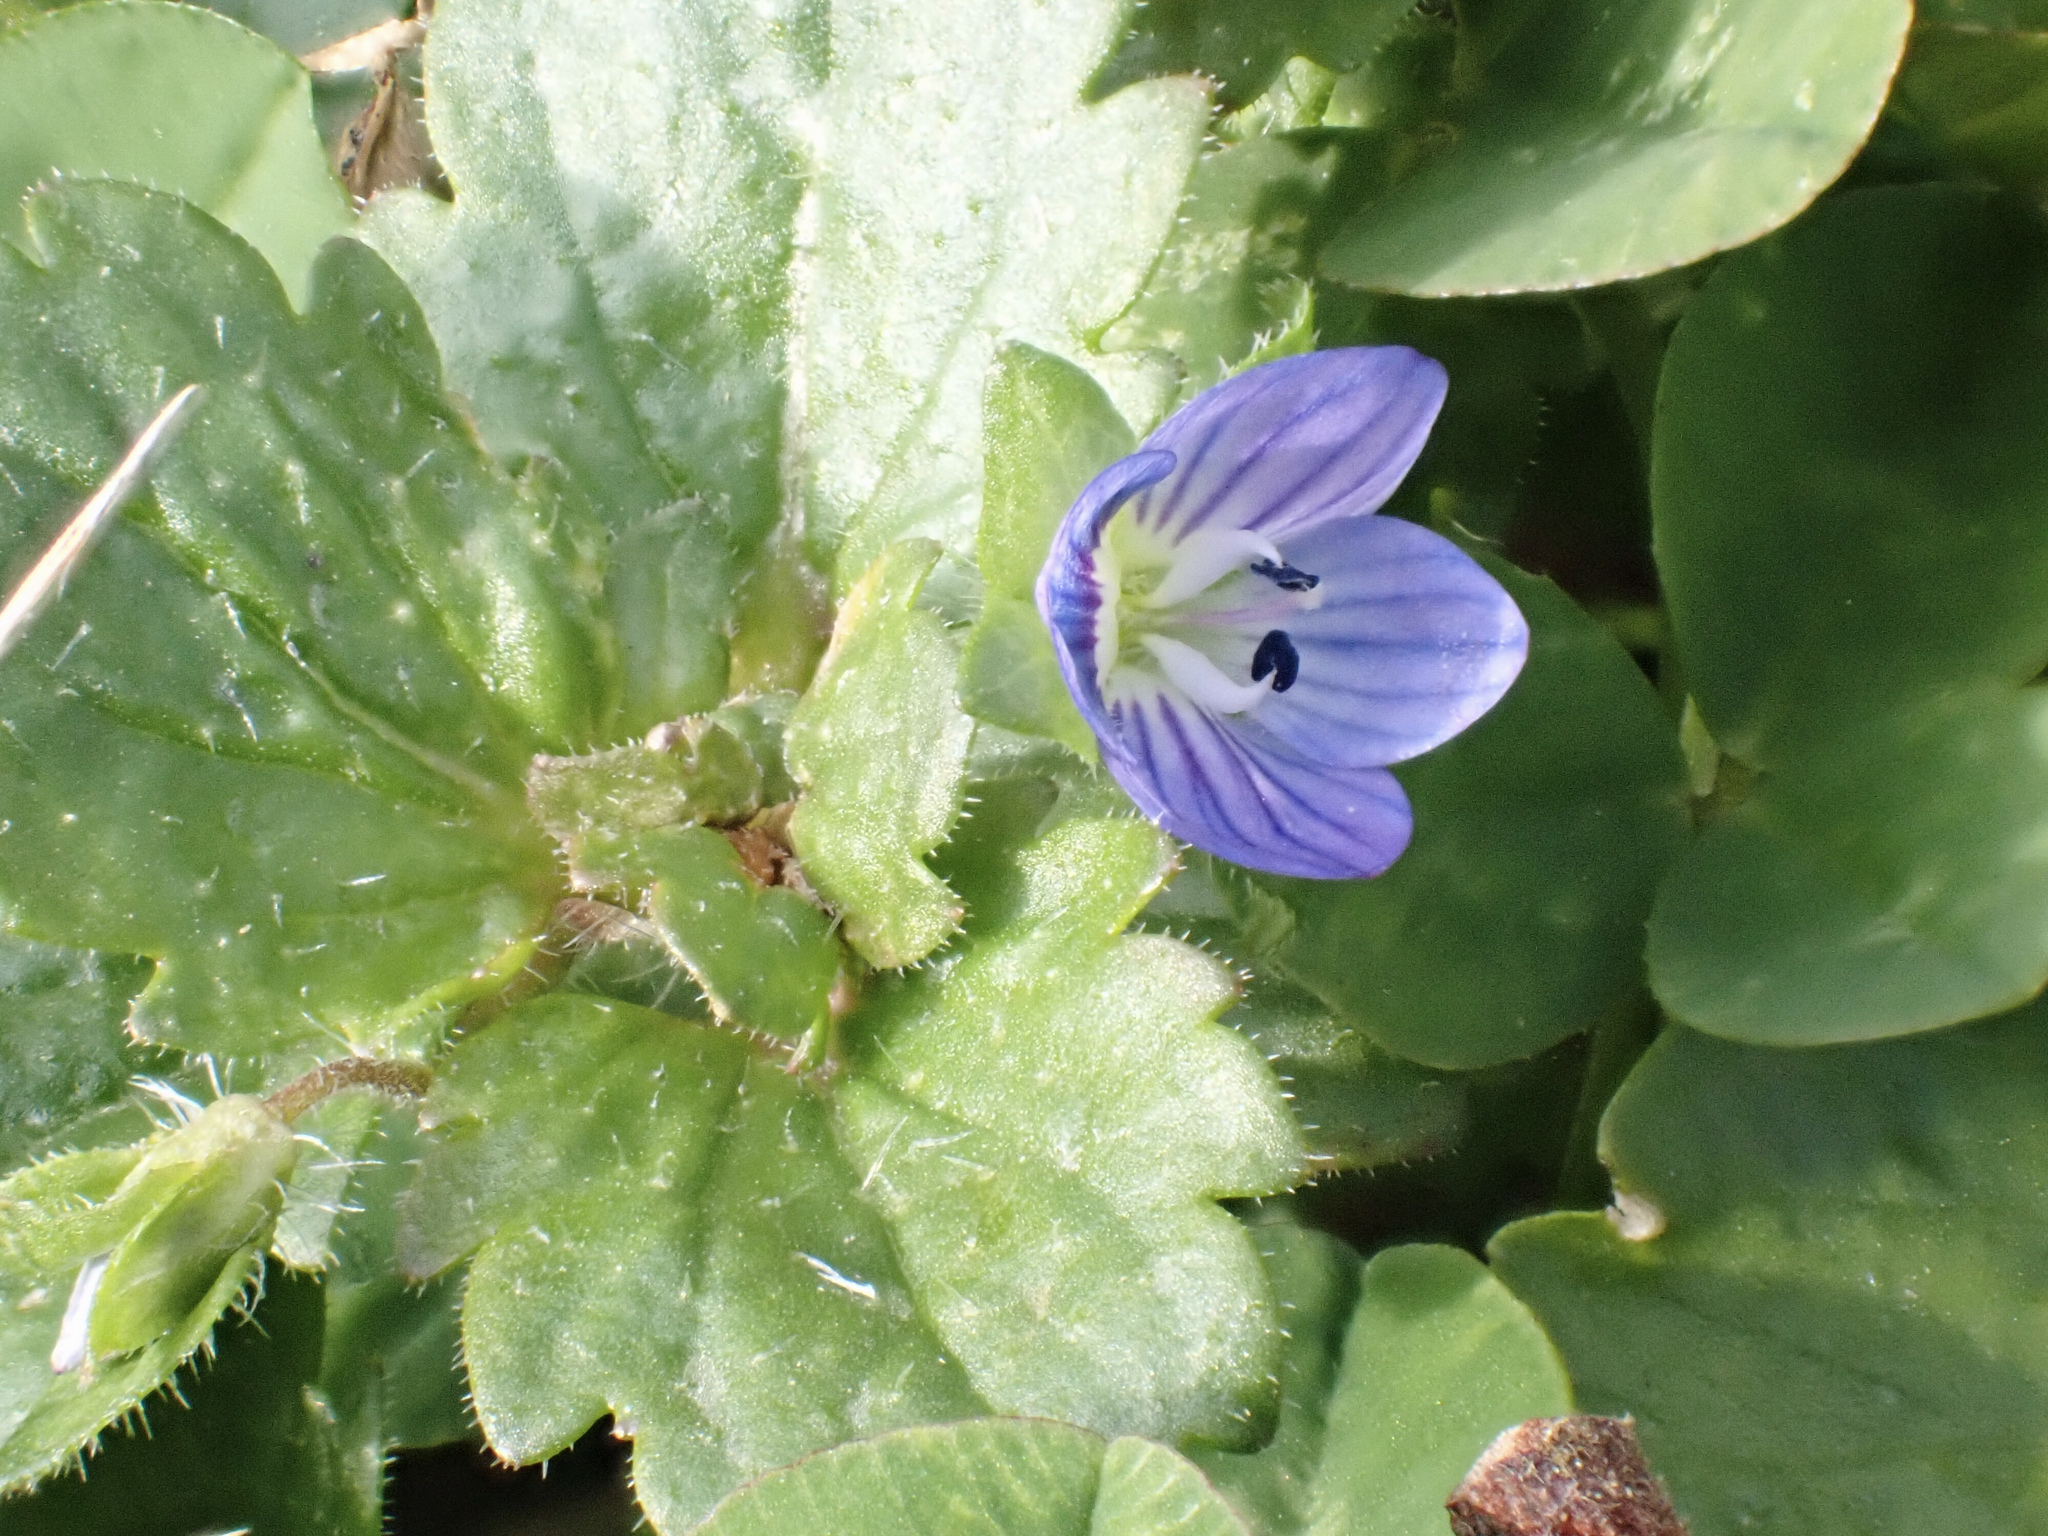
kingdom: Plantae
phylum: Tracheophyta
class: Magnoliopsida
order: Lamiales
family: Plantaginaceae
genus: Veronica
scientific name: Veronica persica
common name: Common field-speedwell
